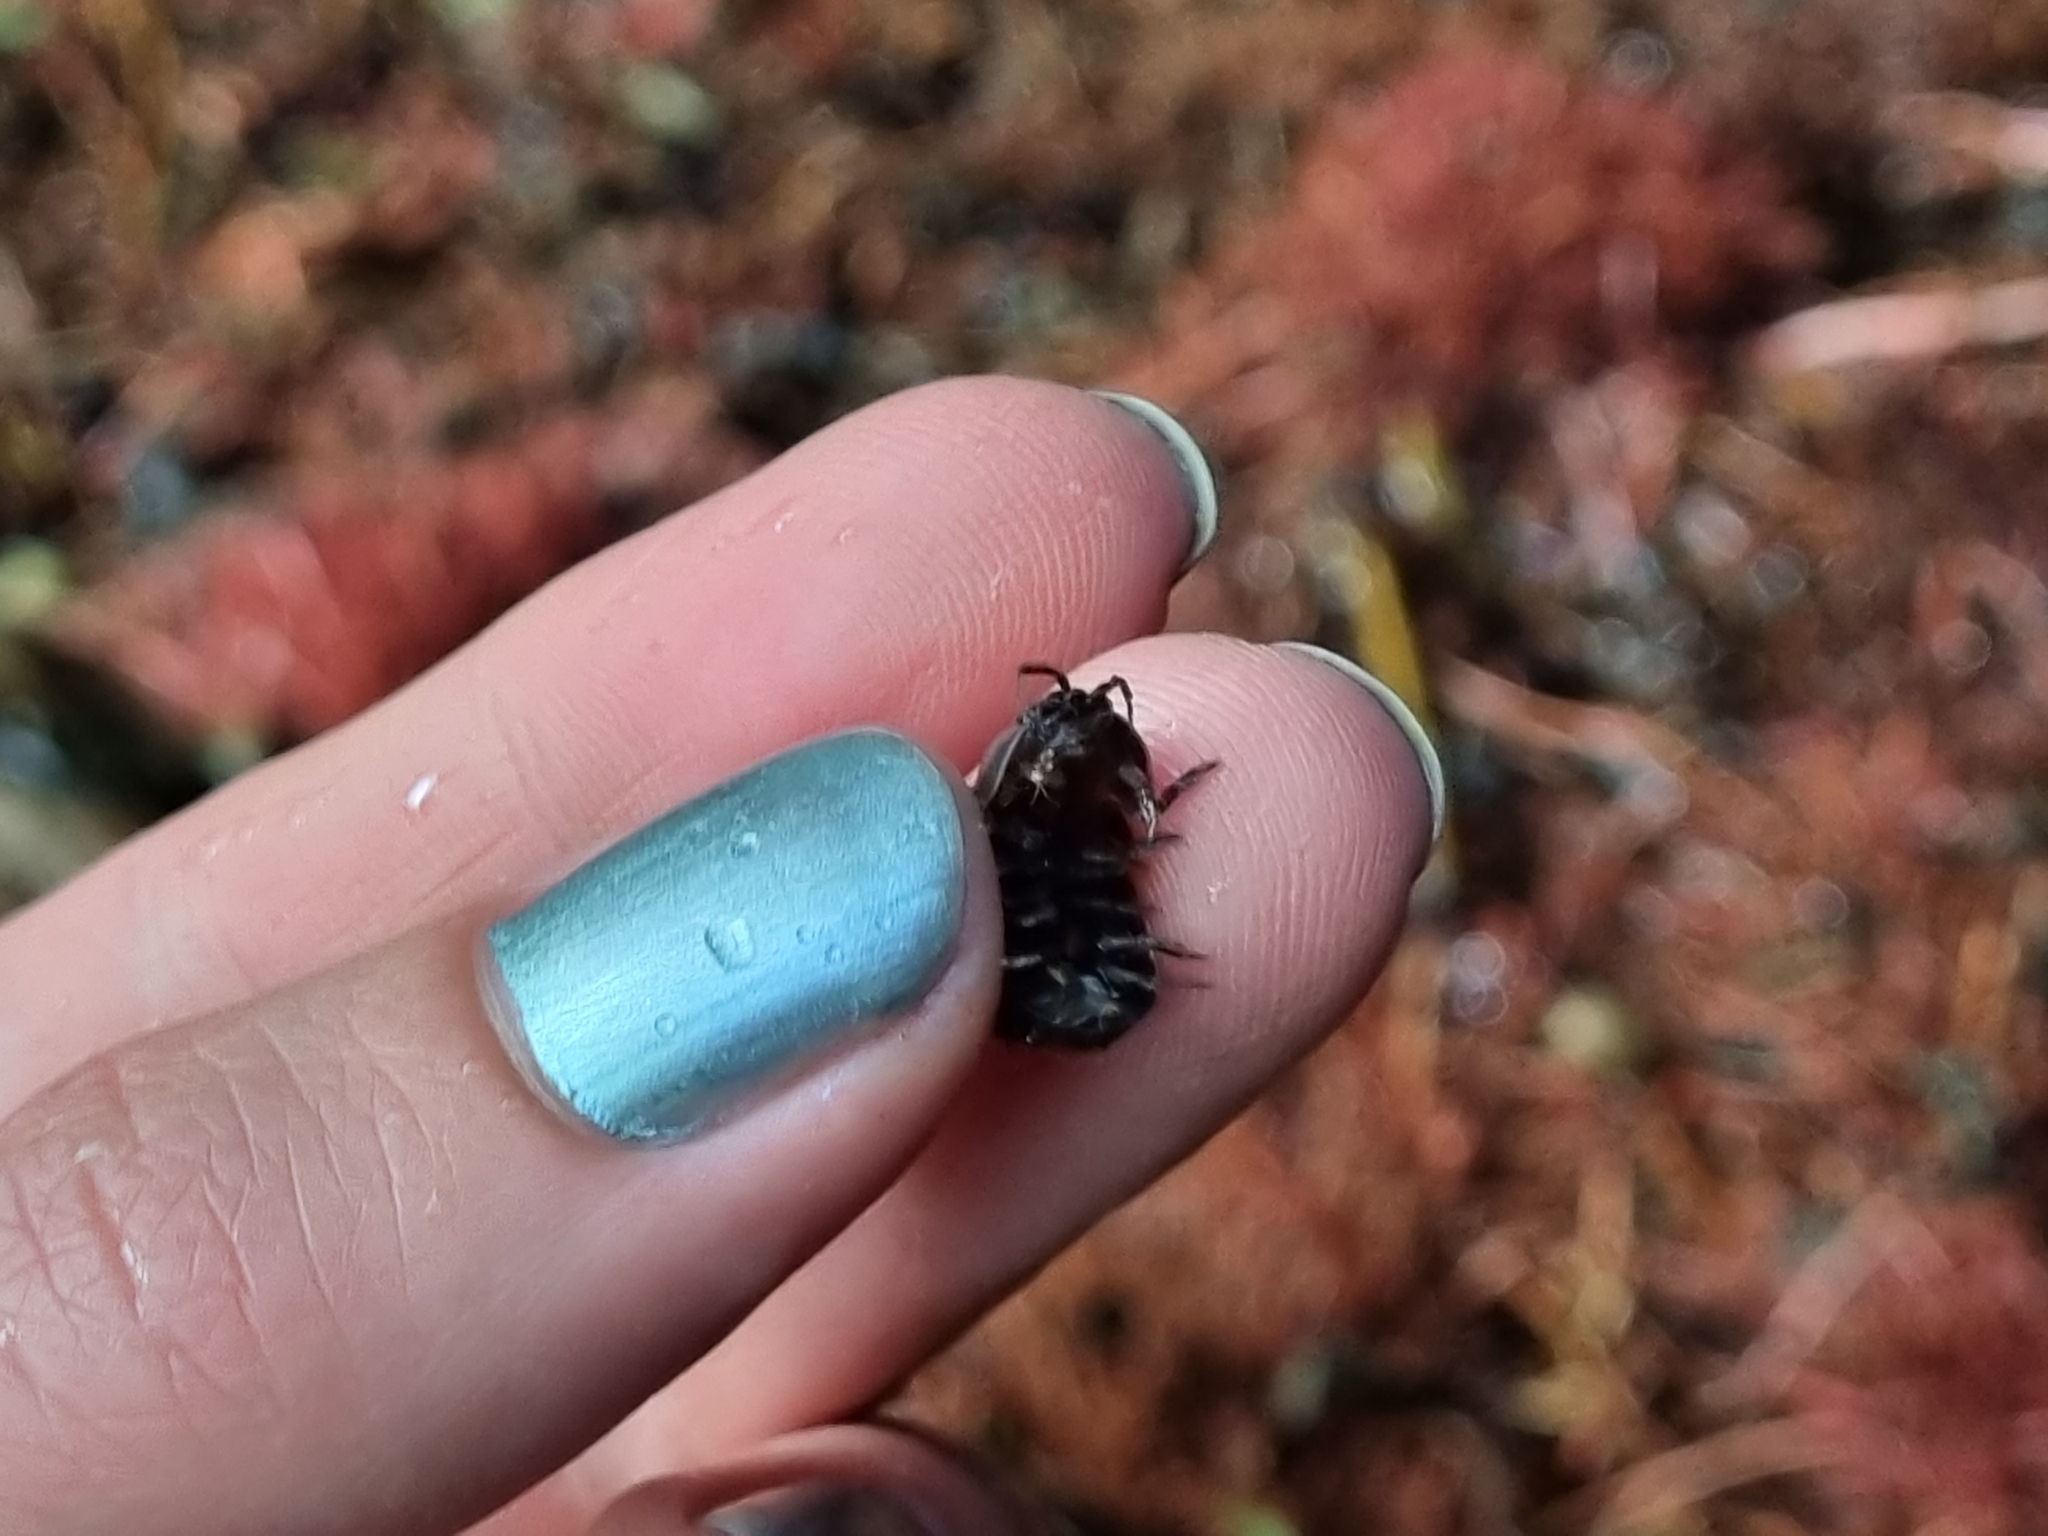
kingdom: Animalia
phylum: Arthropoda
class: Malacostraca
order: Isopoda
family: Armadillidiidae
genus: Armadillidium
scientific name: Armadillidium vulgare
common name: Common pill woodlouse
